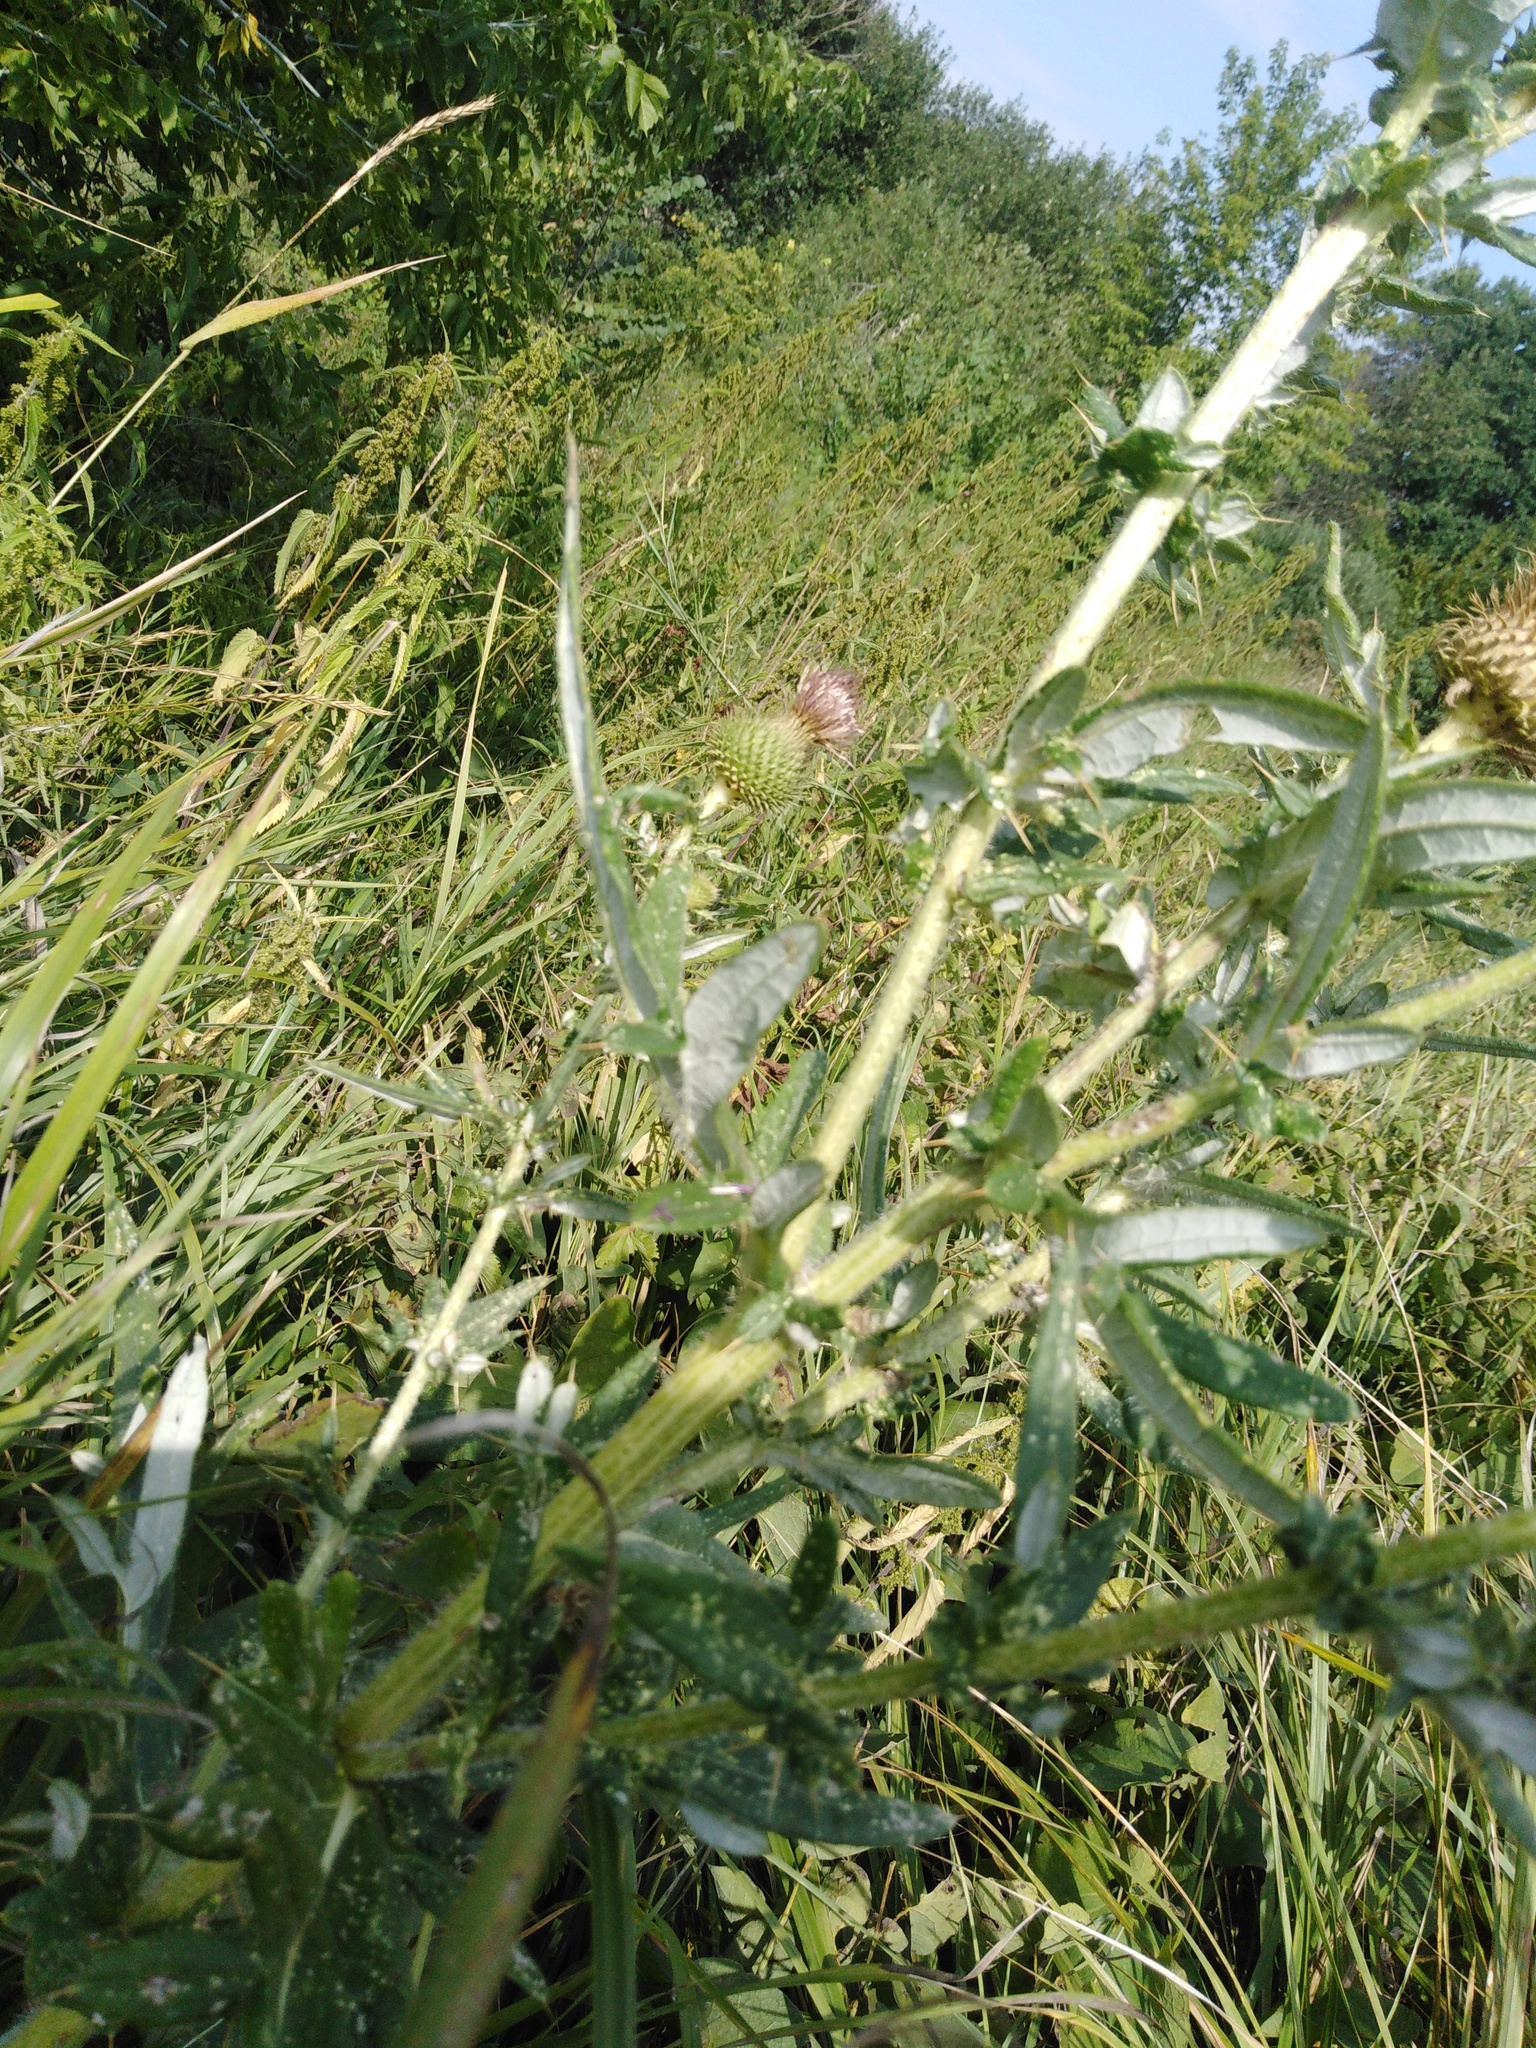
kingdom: Plantae
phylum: Tracheophyta
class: Magnoliopsida
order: Asterales
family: Asteraceae
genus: Lophiolepis
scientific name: Lophiolepis ciliata
